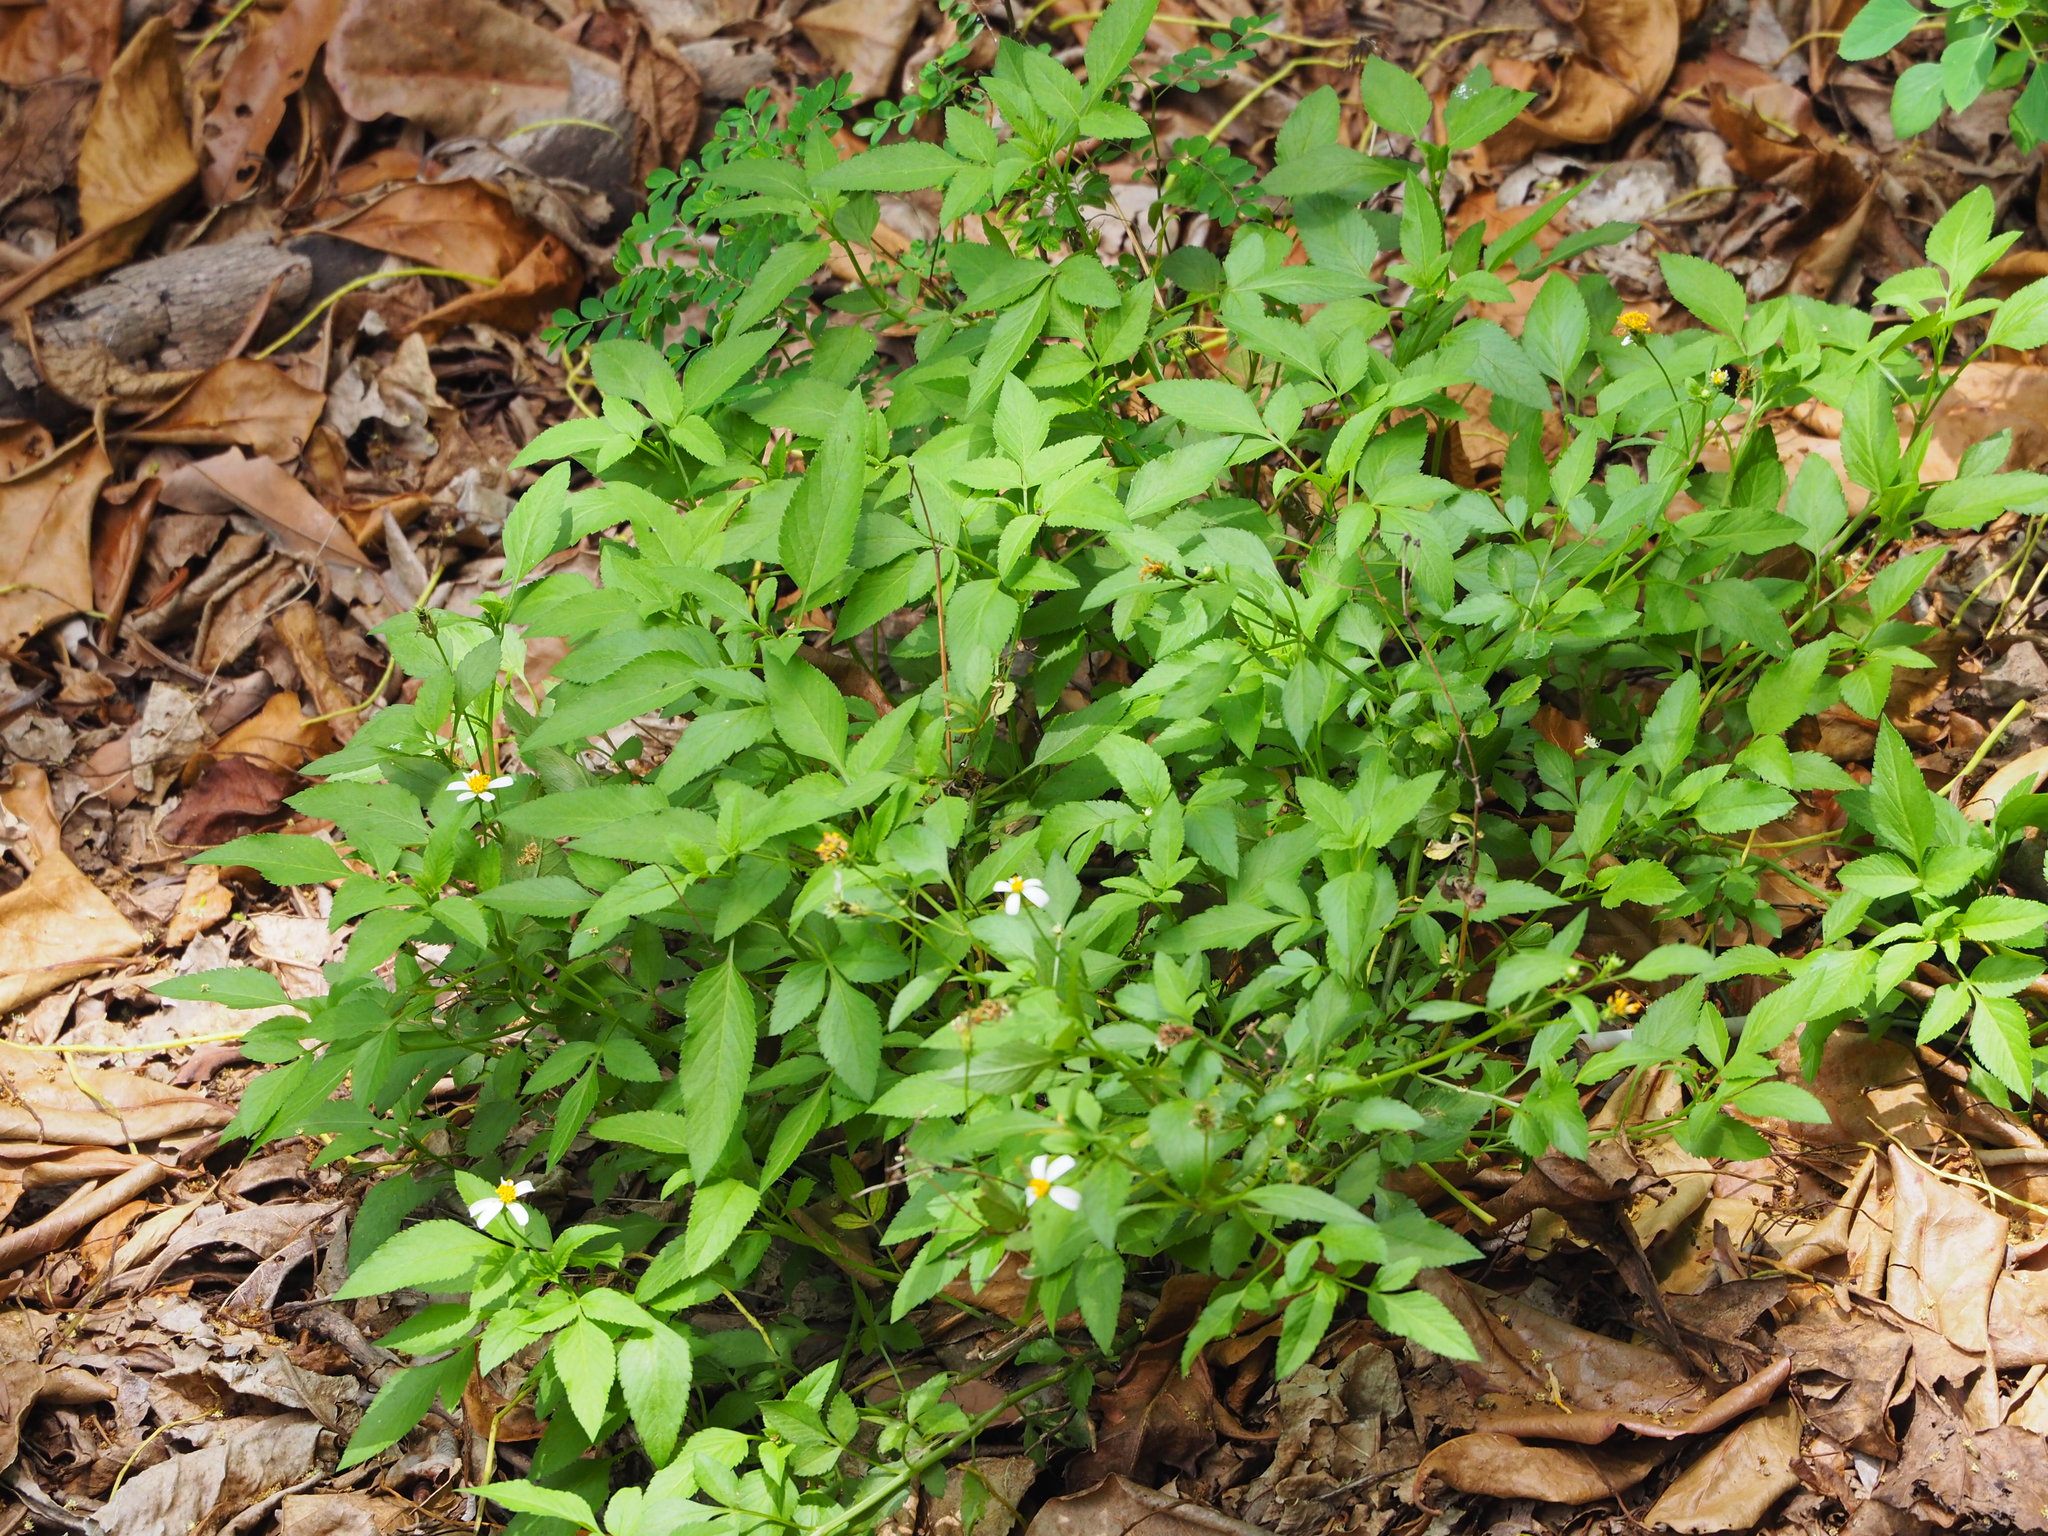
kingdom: Plantae
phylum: Tracheophyta
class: Magnoliopsida
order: Asterales
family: Asteraceae
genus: Bidens
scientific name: Bidens alba
